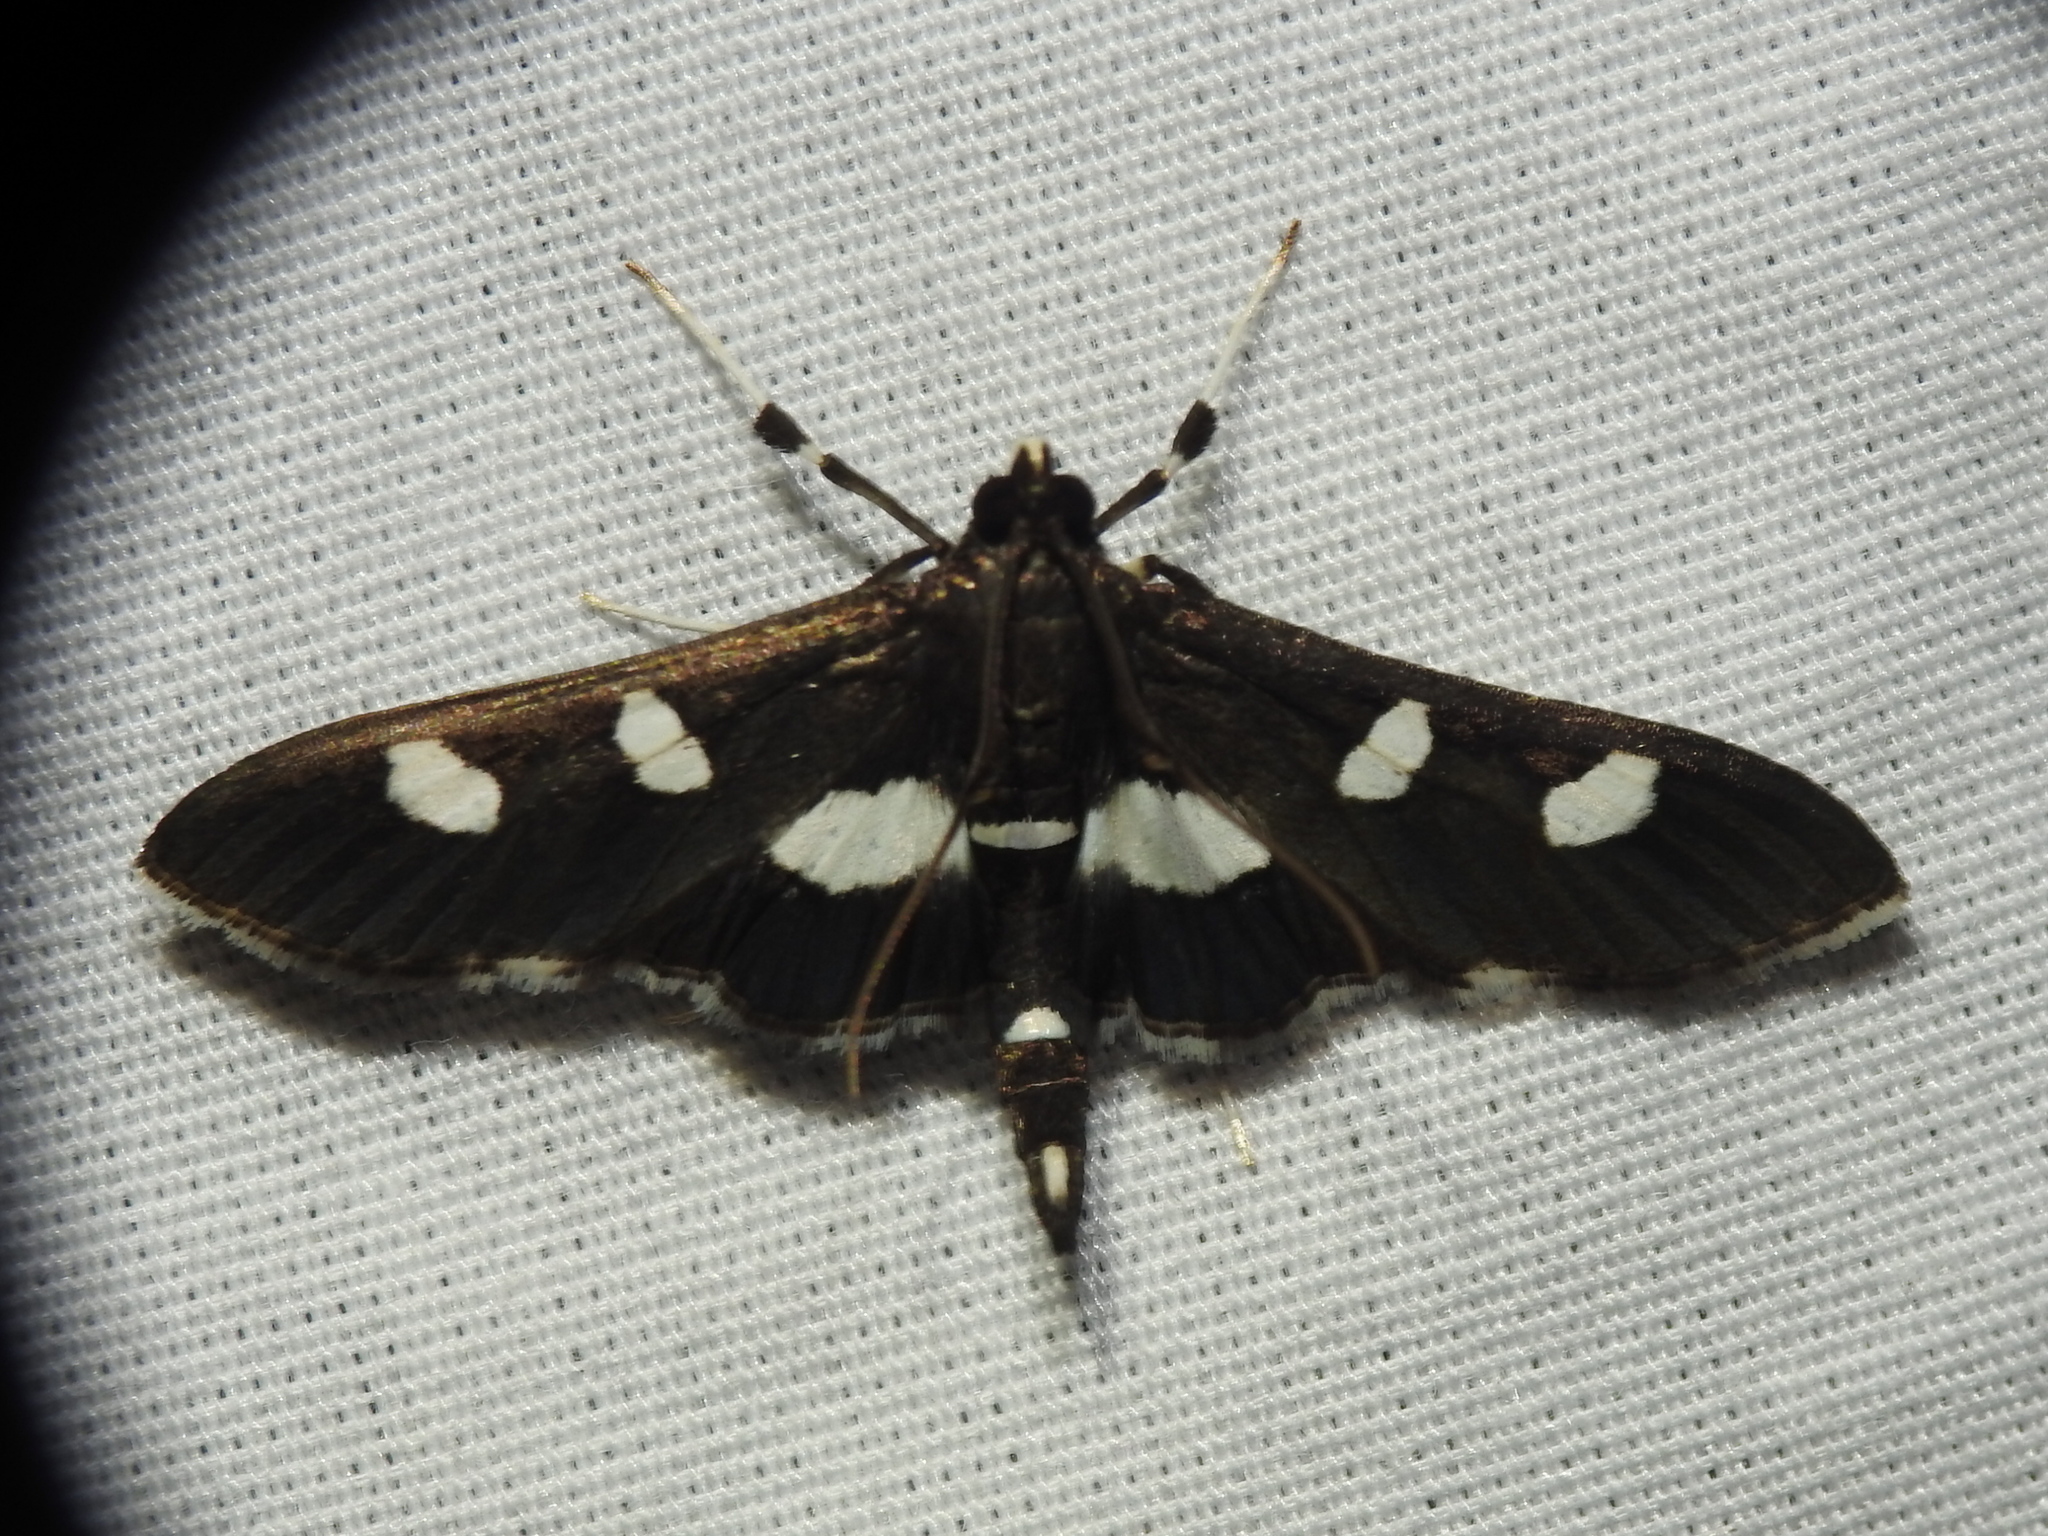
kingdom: Animalia
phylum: Arthropoda
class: Insecta
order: Lepidoptera
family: Crambidae
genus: Desmia
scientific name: Desmia
